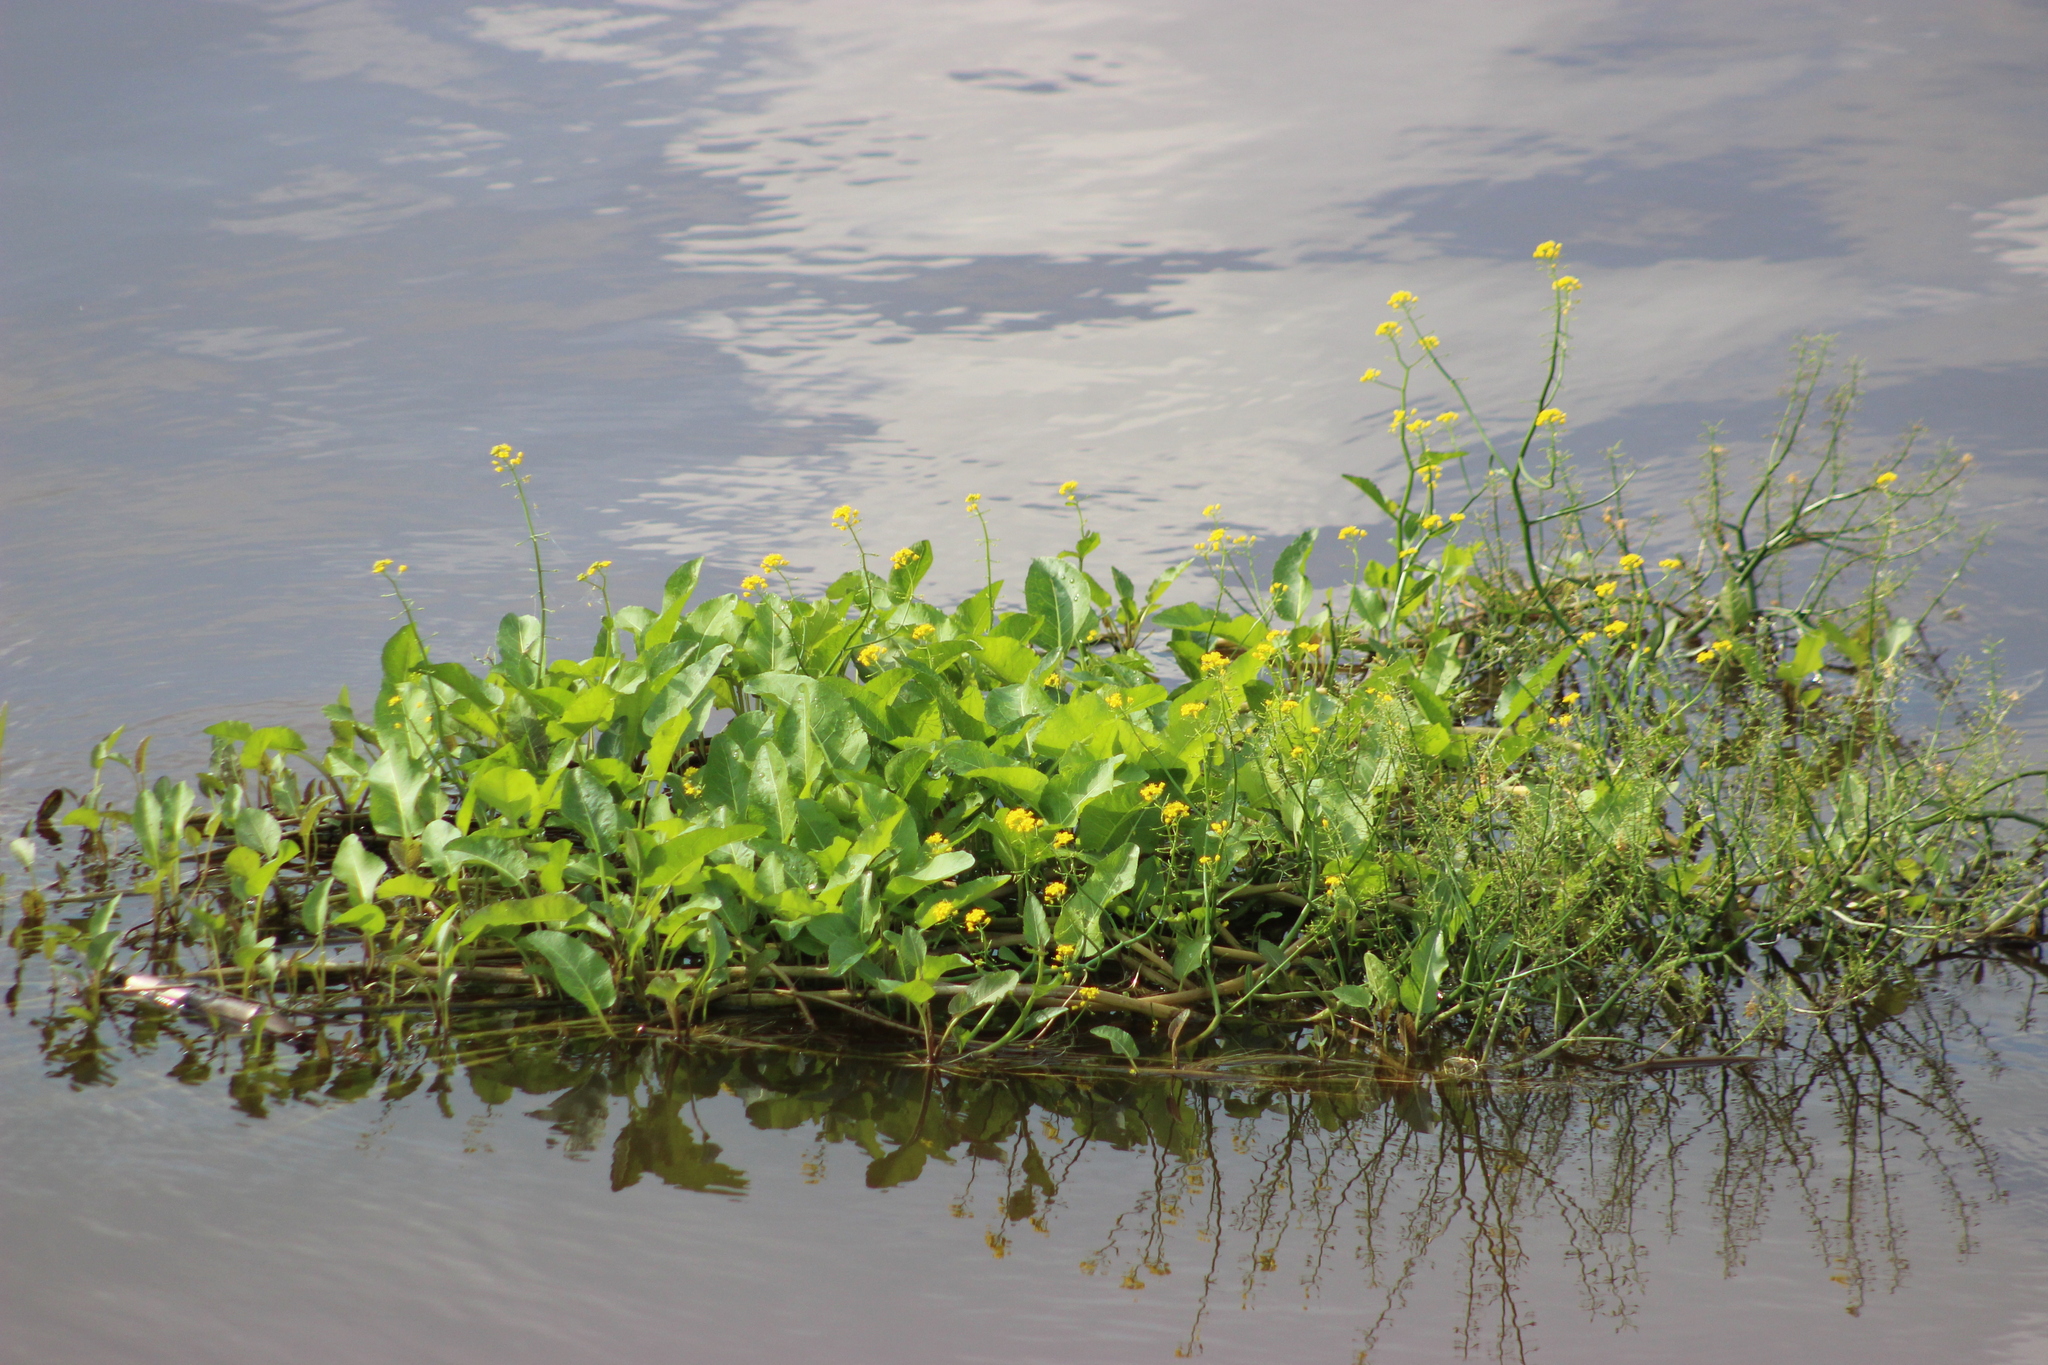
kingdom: Plantae
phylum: Tracheophyta
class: Magnoliopsida
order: Brassicales
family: Brassicaceae
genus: Rorippa
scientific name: Rorippa amphibia
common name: Great yellow-cress
